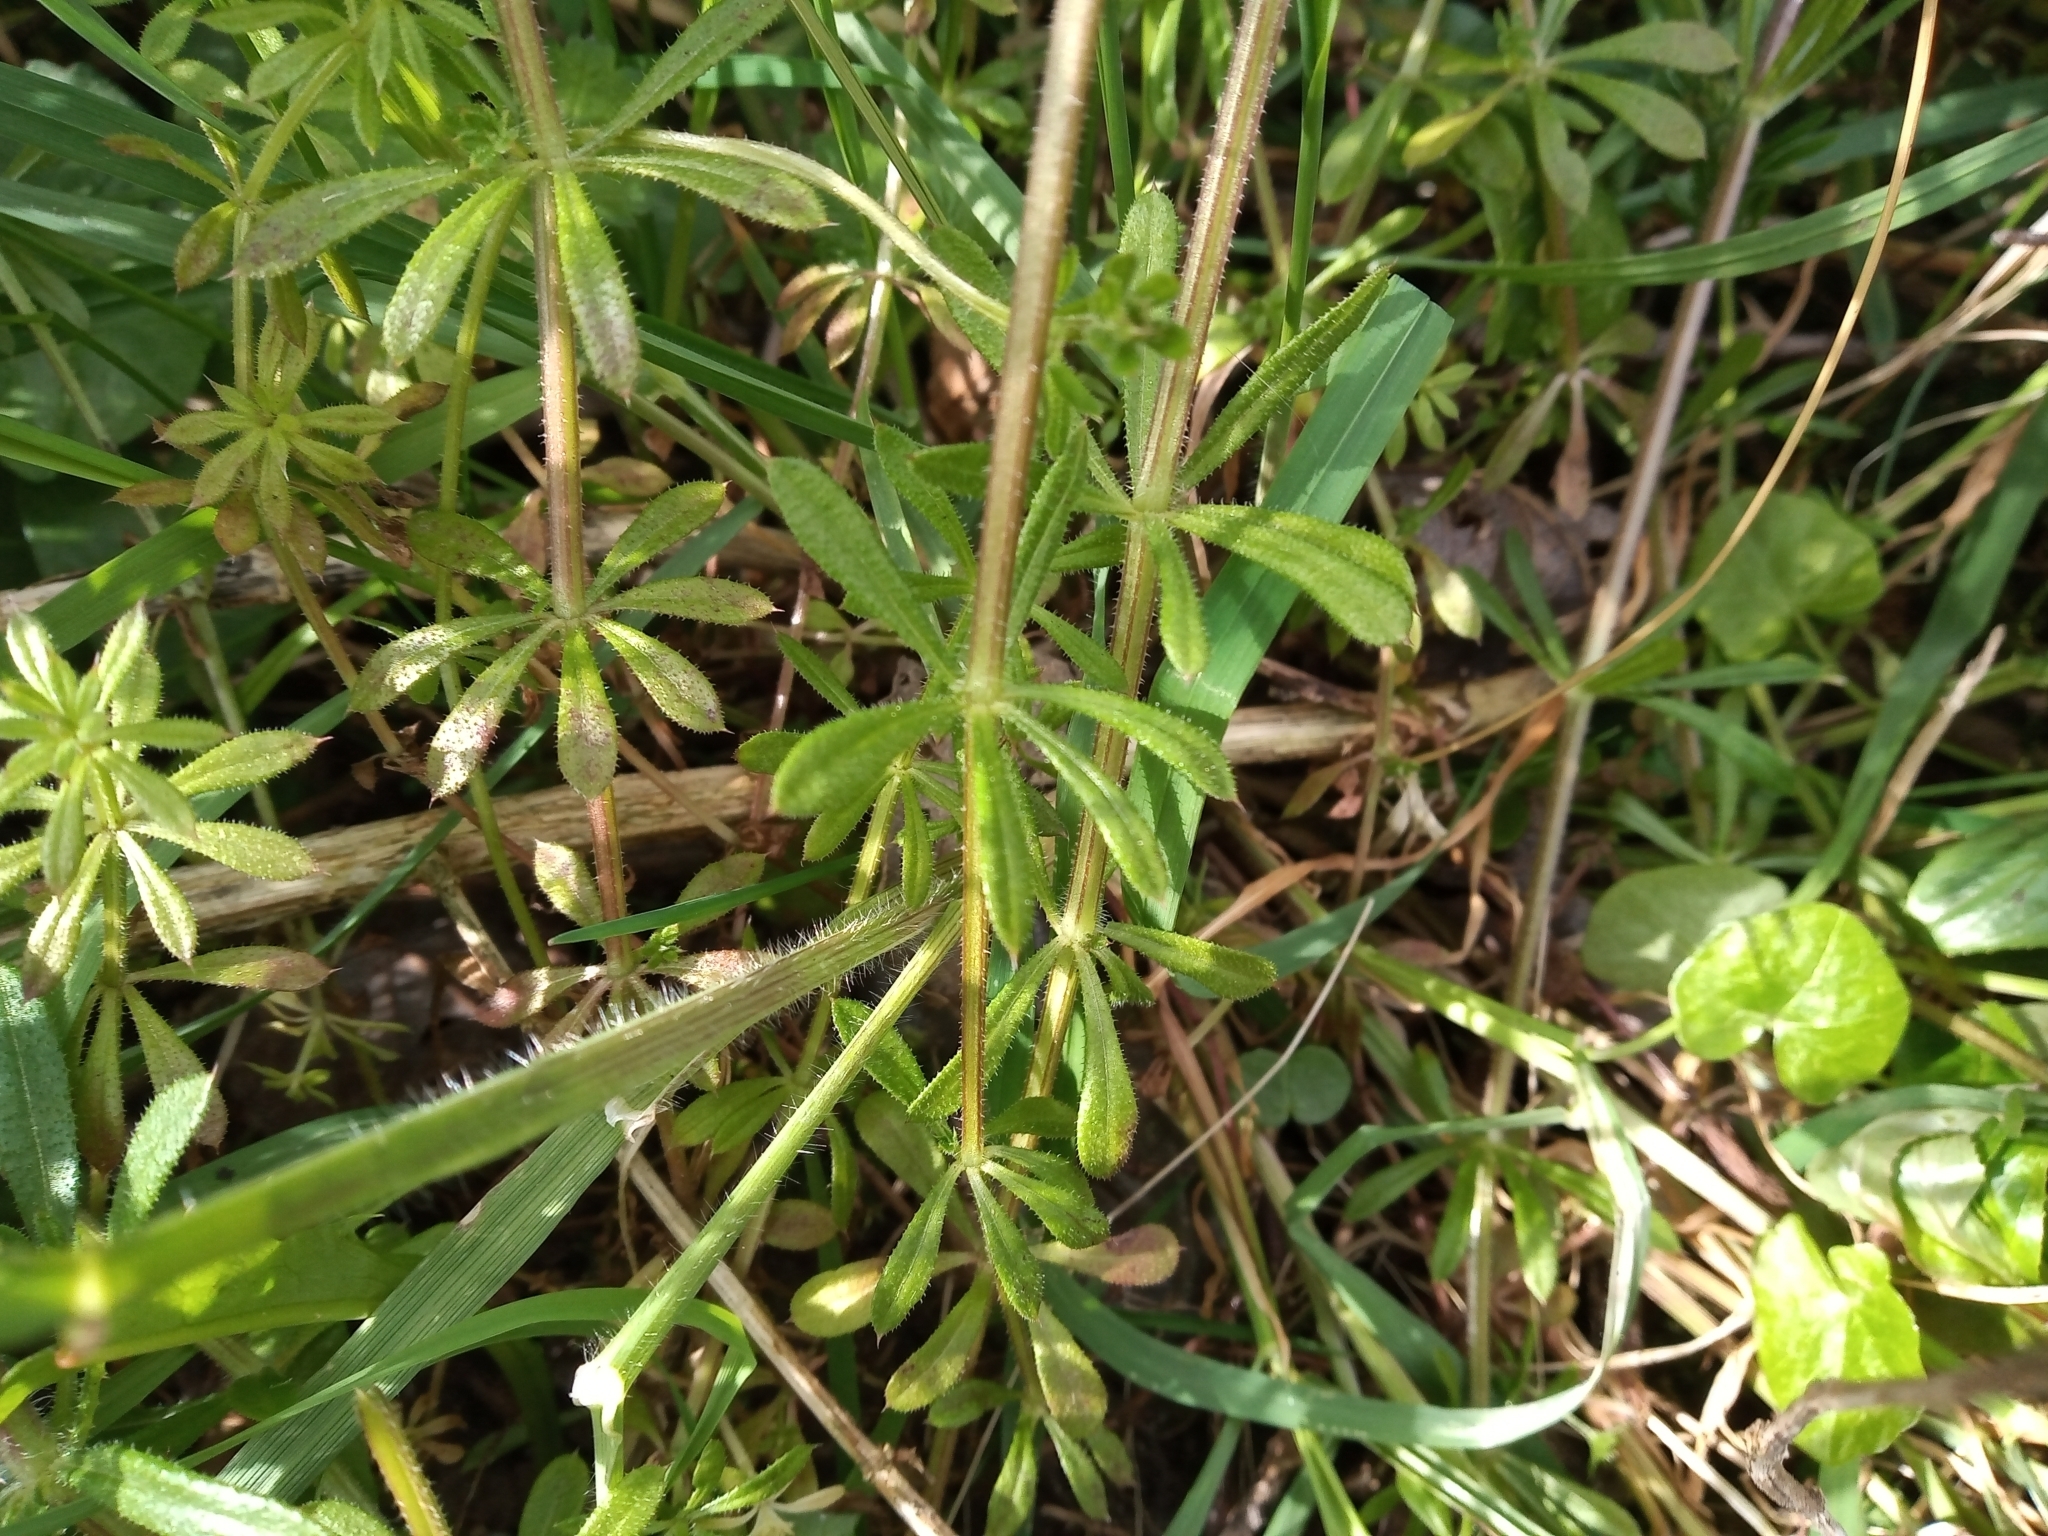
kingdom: Plantae
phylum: Tracheophyta
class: Magnoliopsida
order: Gentianales
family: Rubiaceae
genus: Galium
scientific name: Galium aparine
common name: Cleavers
